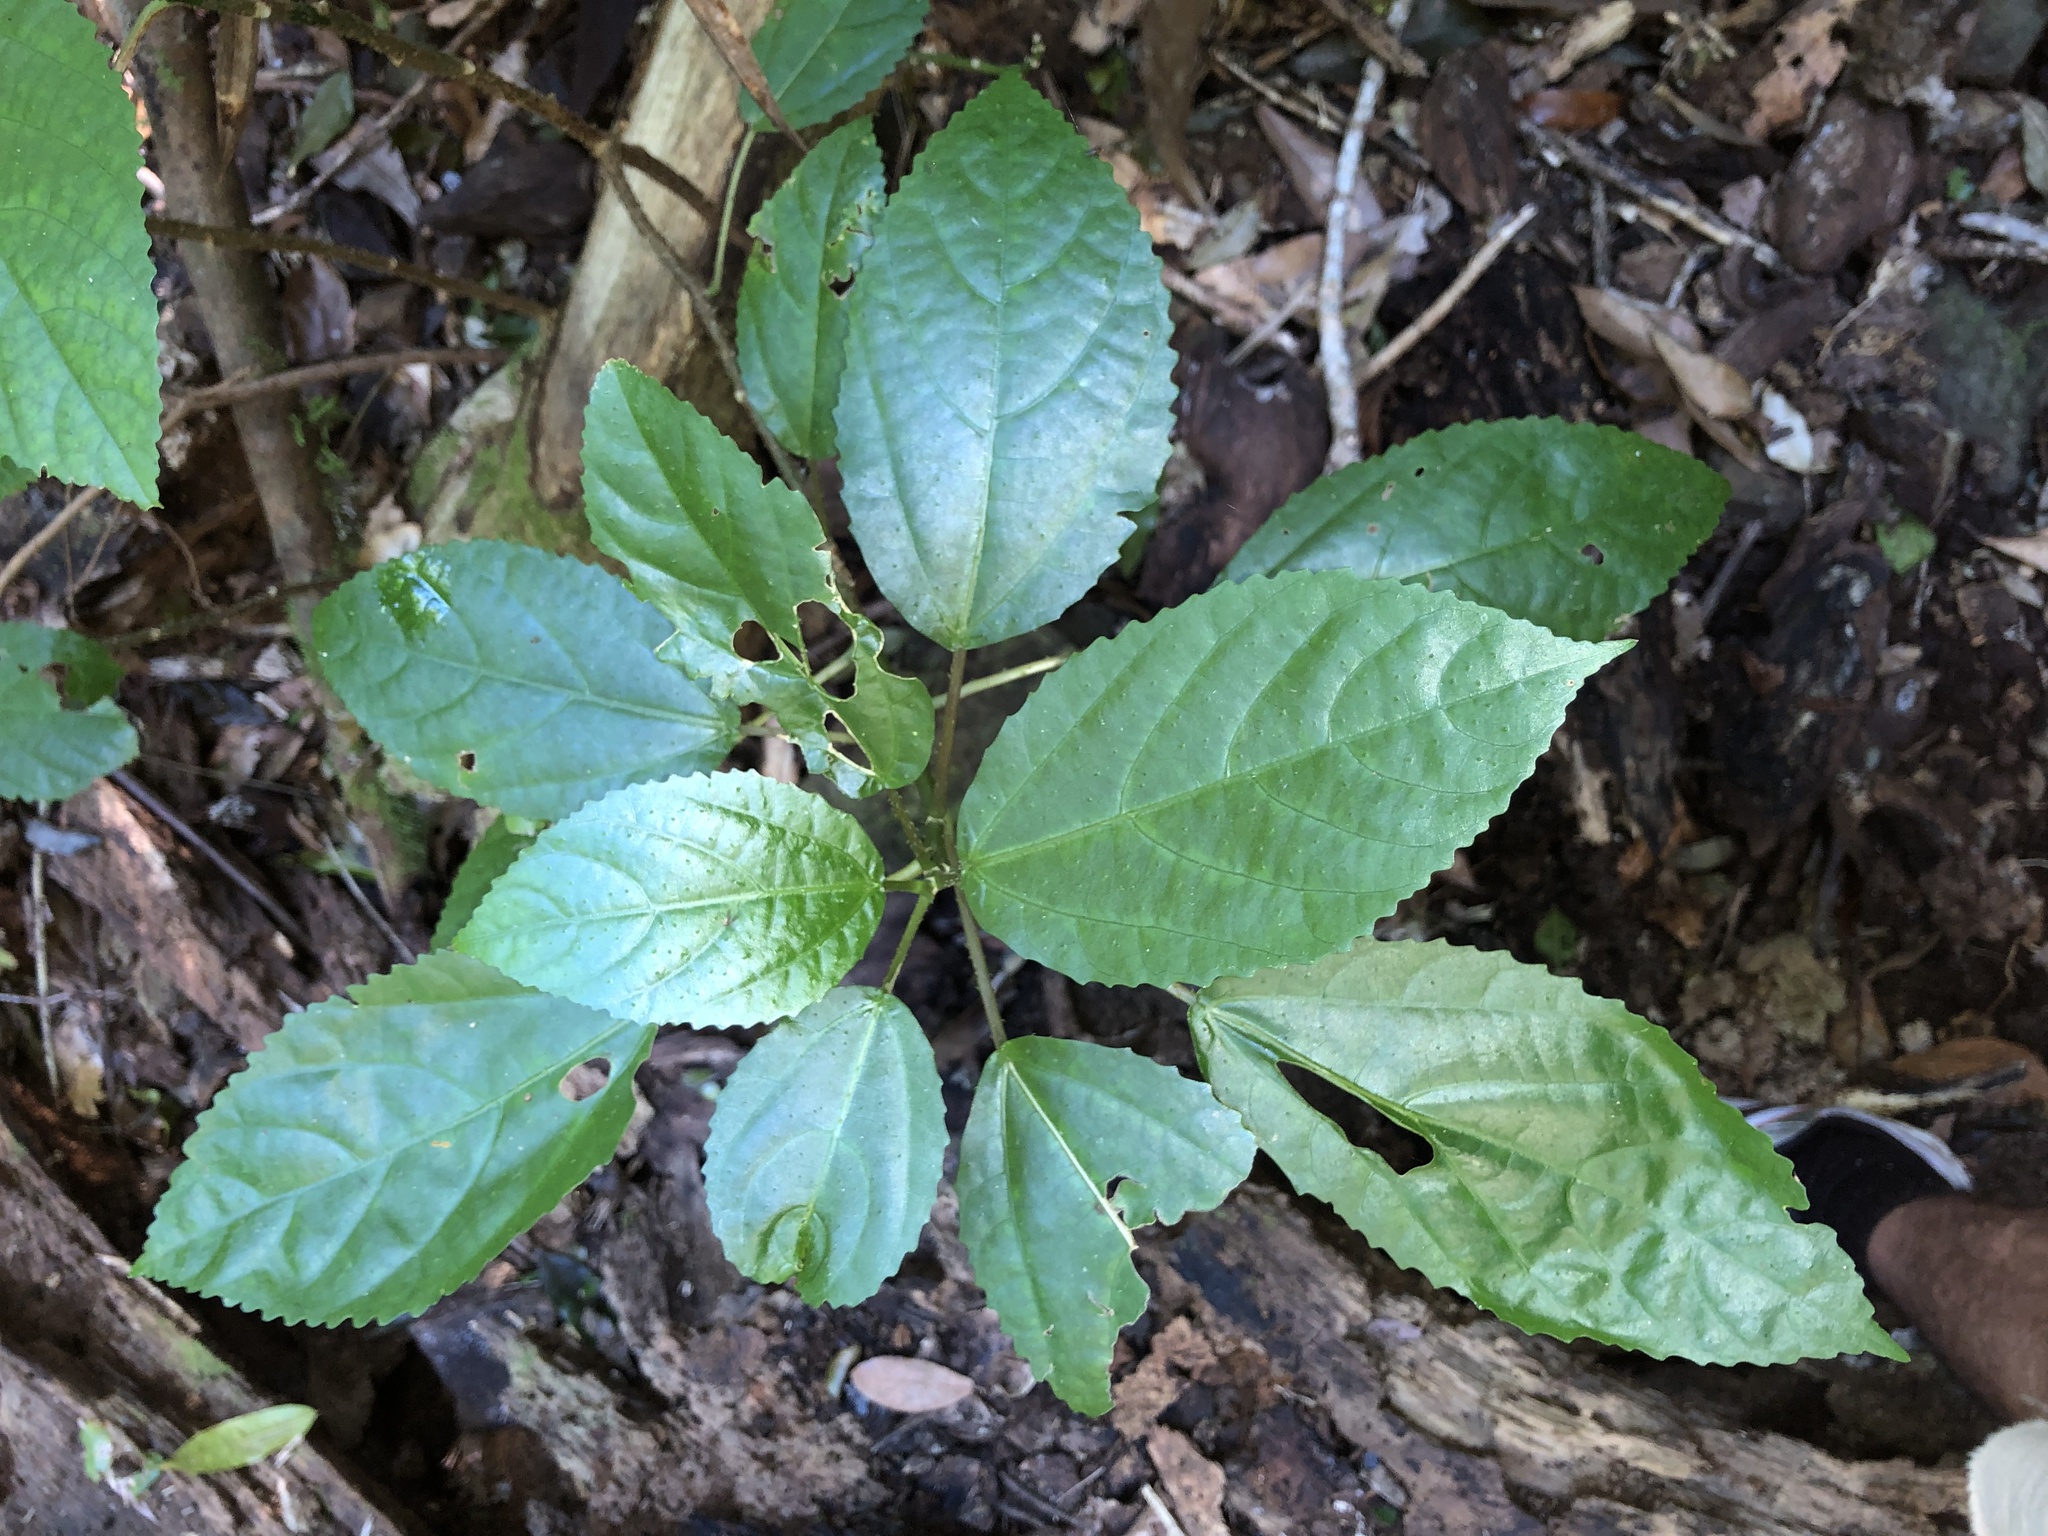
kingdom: Plantae
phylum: Tracheophyta
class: Magnoliopsida
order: Rosales
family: Urticaceae
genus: Dendrocnide
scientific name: Dendrocnide photiniphylla
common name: Shiny-leaved stinging tree
